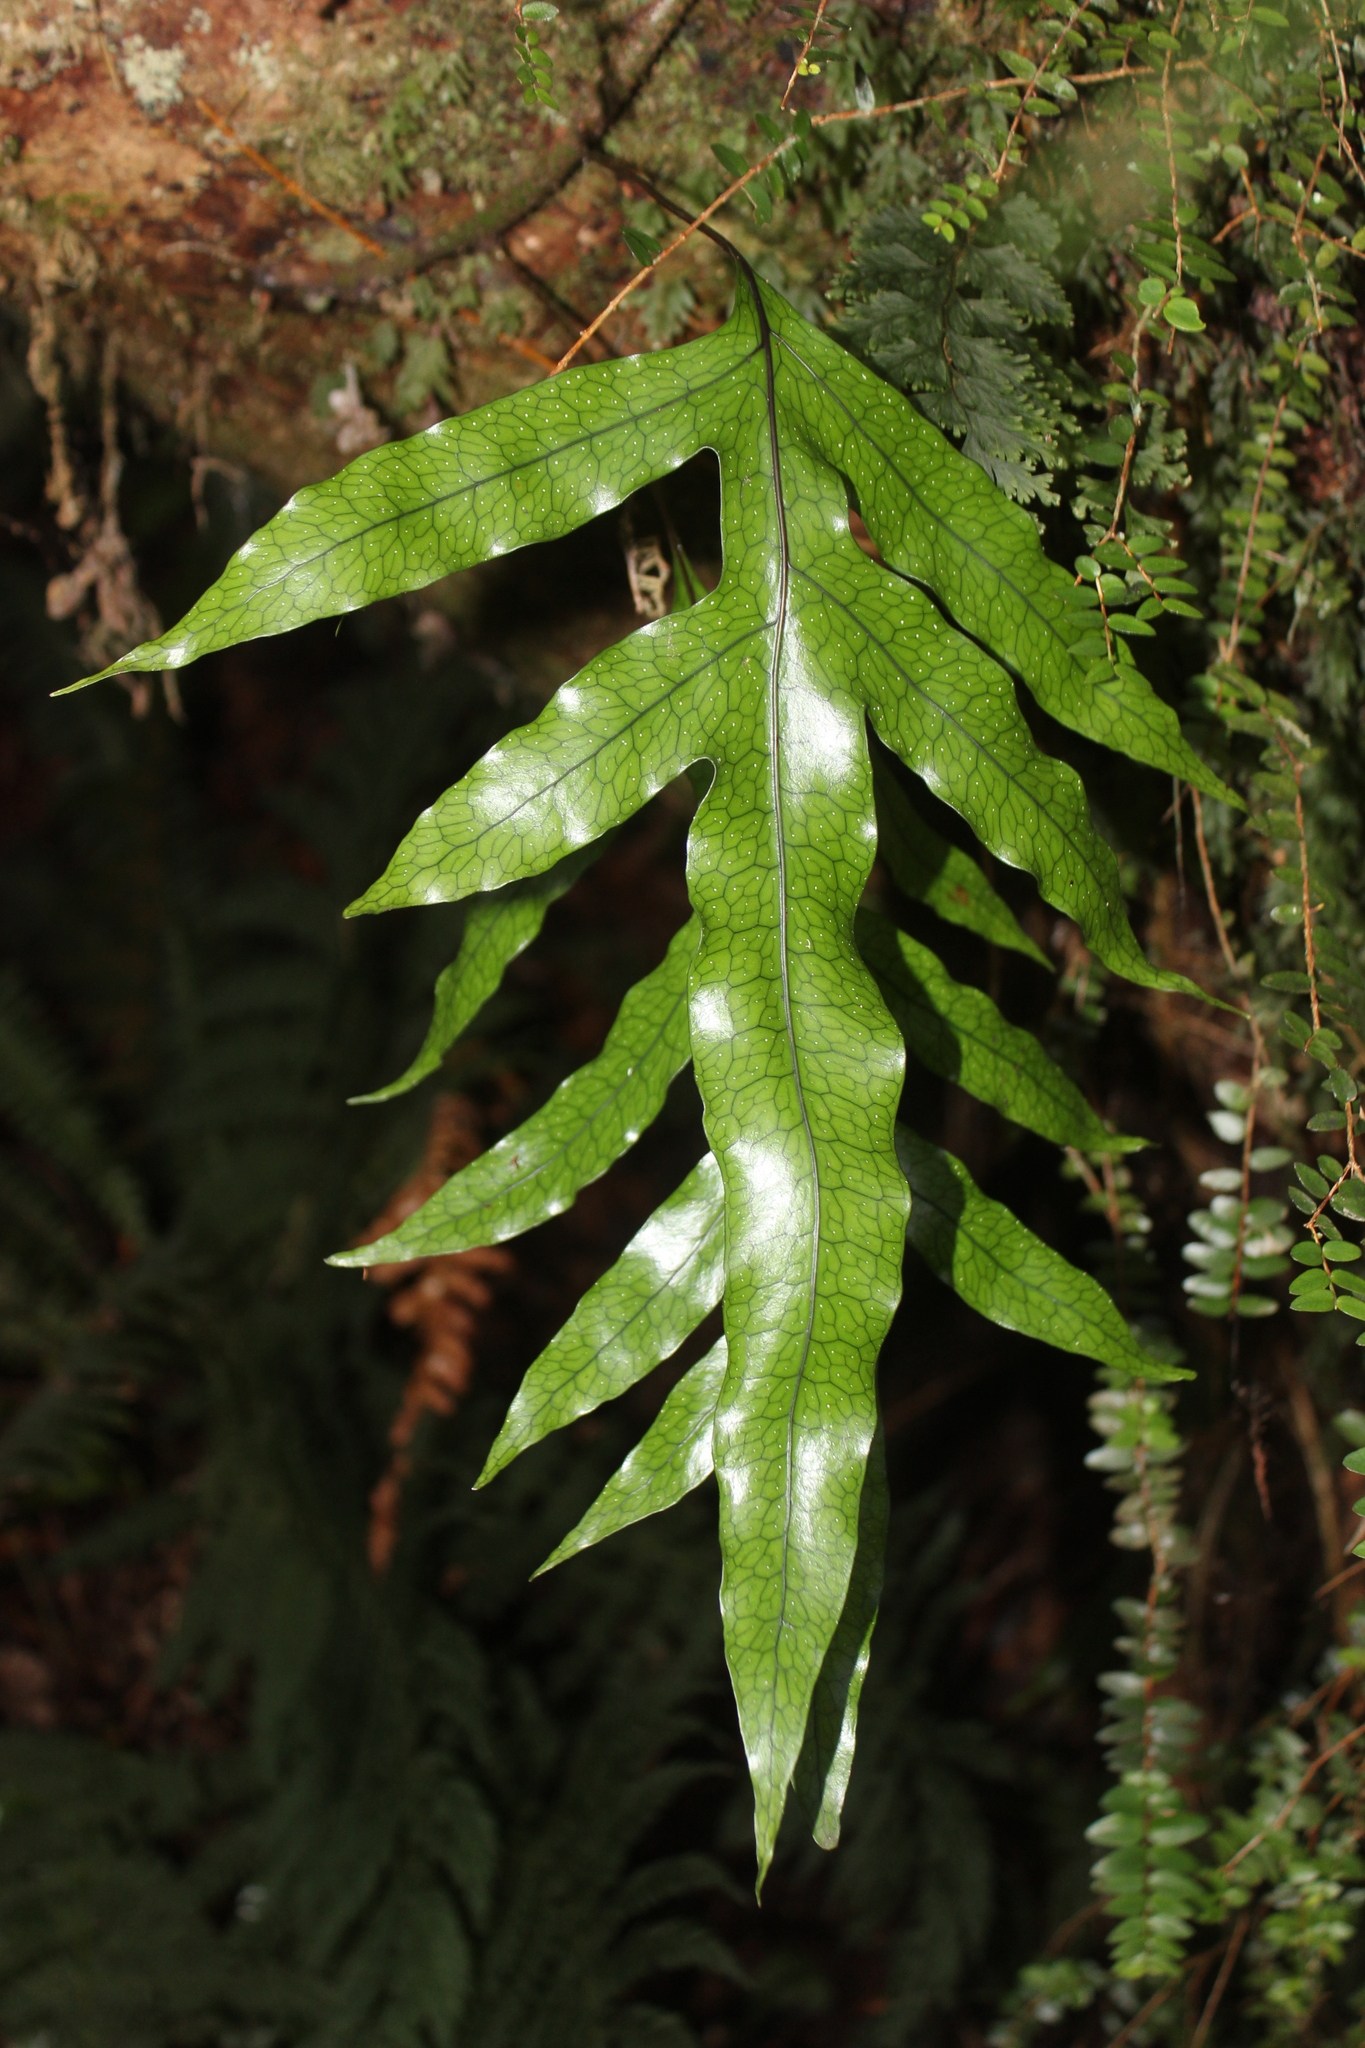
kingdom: Plantae
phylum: Tracheophyta
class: Polypodiopsida
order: Polypodiales
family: Polypodiaceae
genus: Lecanopteris
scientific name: Lecanopteris pustulata
